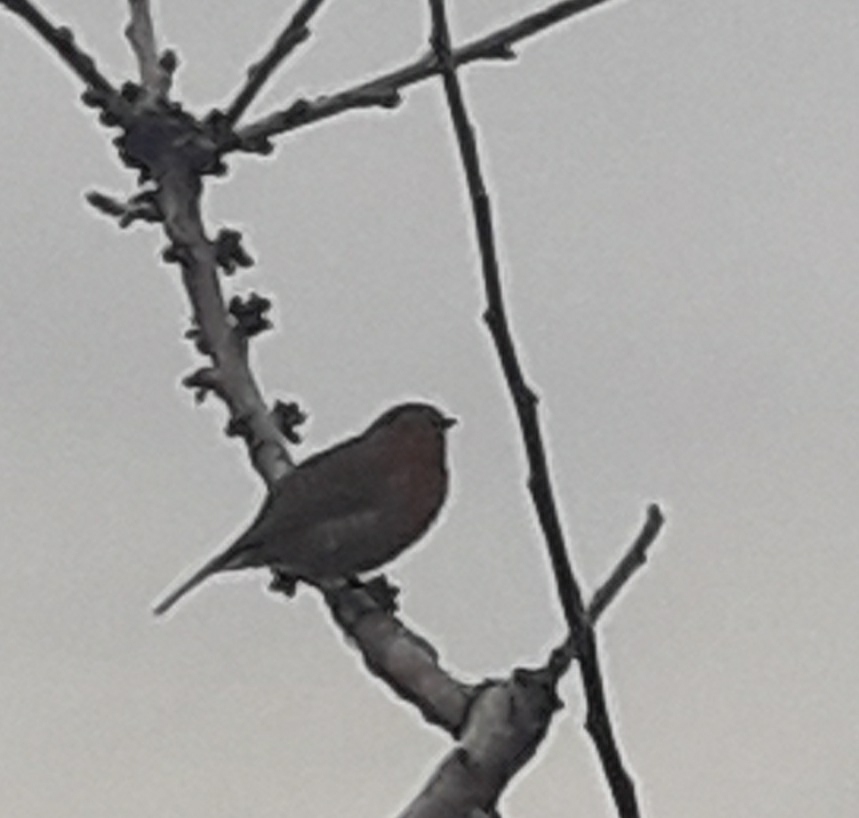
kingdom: Animalia
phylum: Chordata
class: Aves
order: Passeriformes
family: Muscicapidae
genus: Erithacus
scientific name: Erithacus rubecula
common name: European robin
